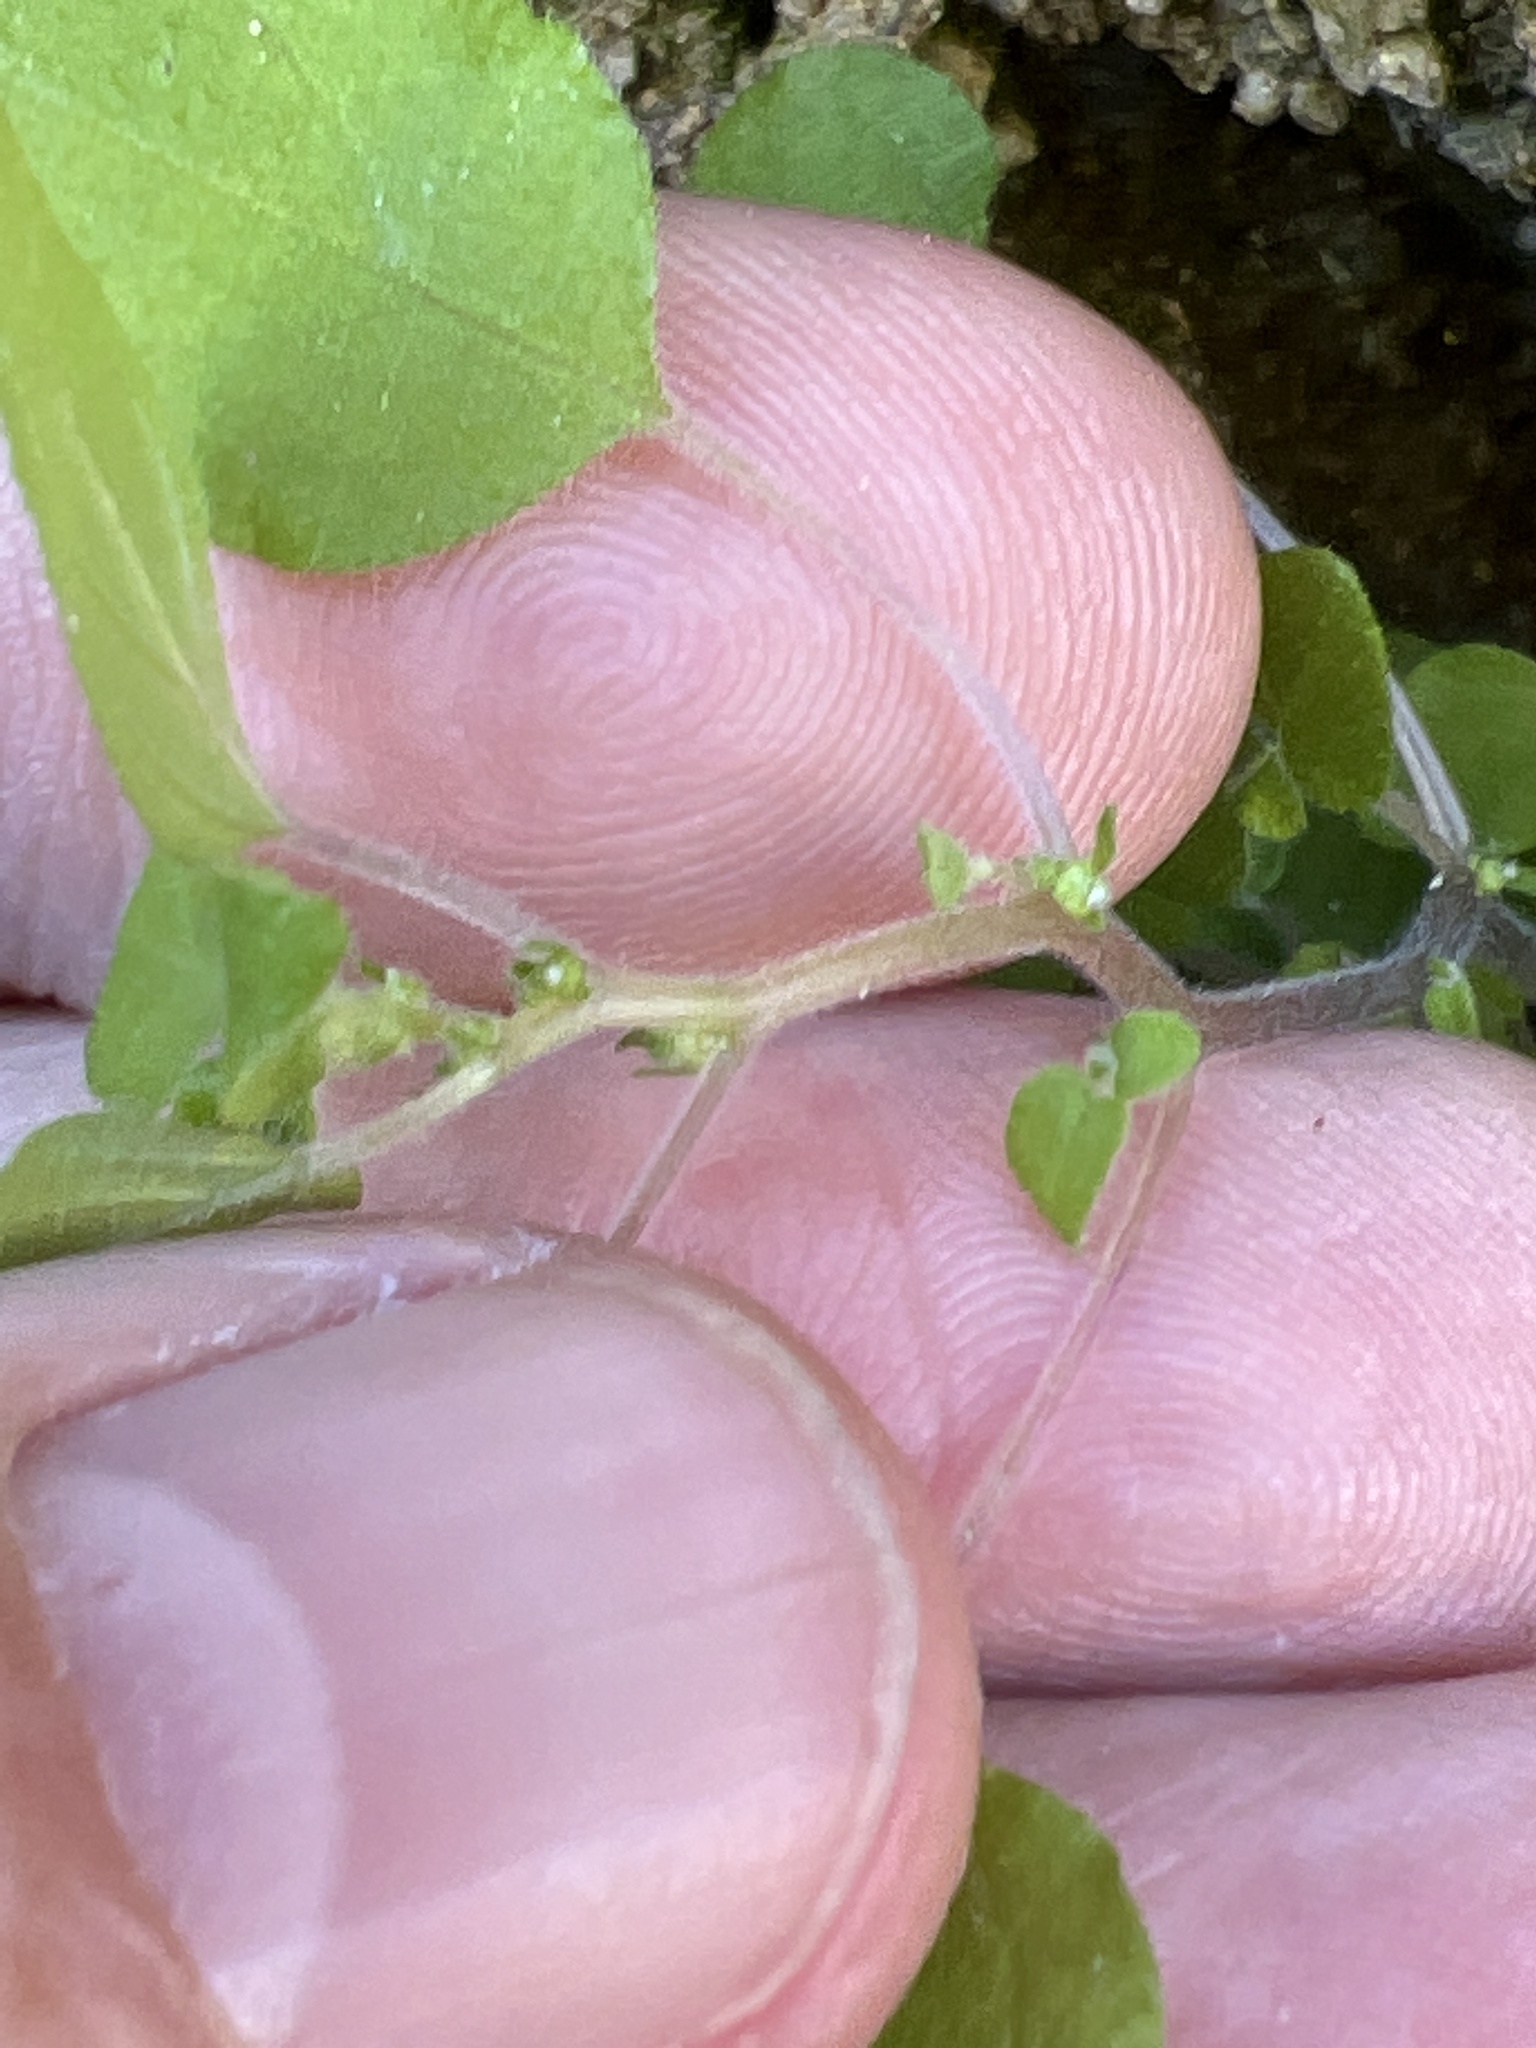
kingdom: Plantae
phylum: Tracheophyta
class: Magnoliopsida
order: Rosales
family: Urticaceae
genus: Parietaria
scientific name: Parietaria hespera
